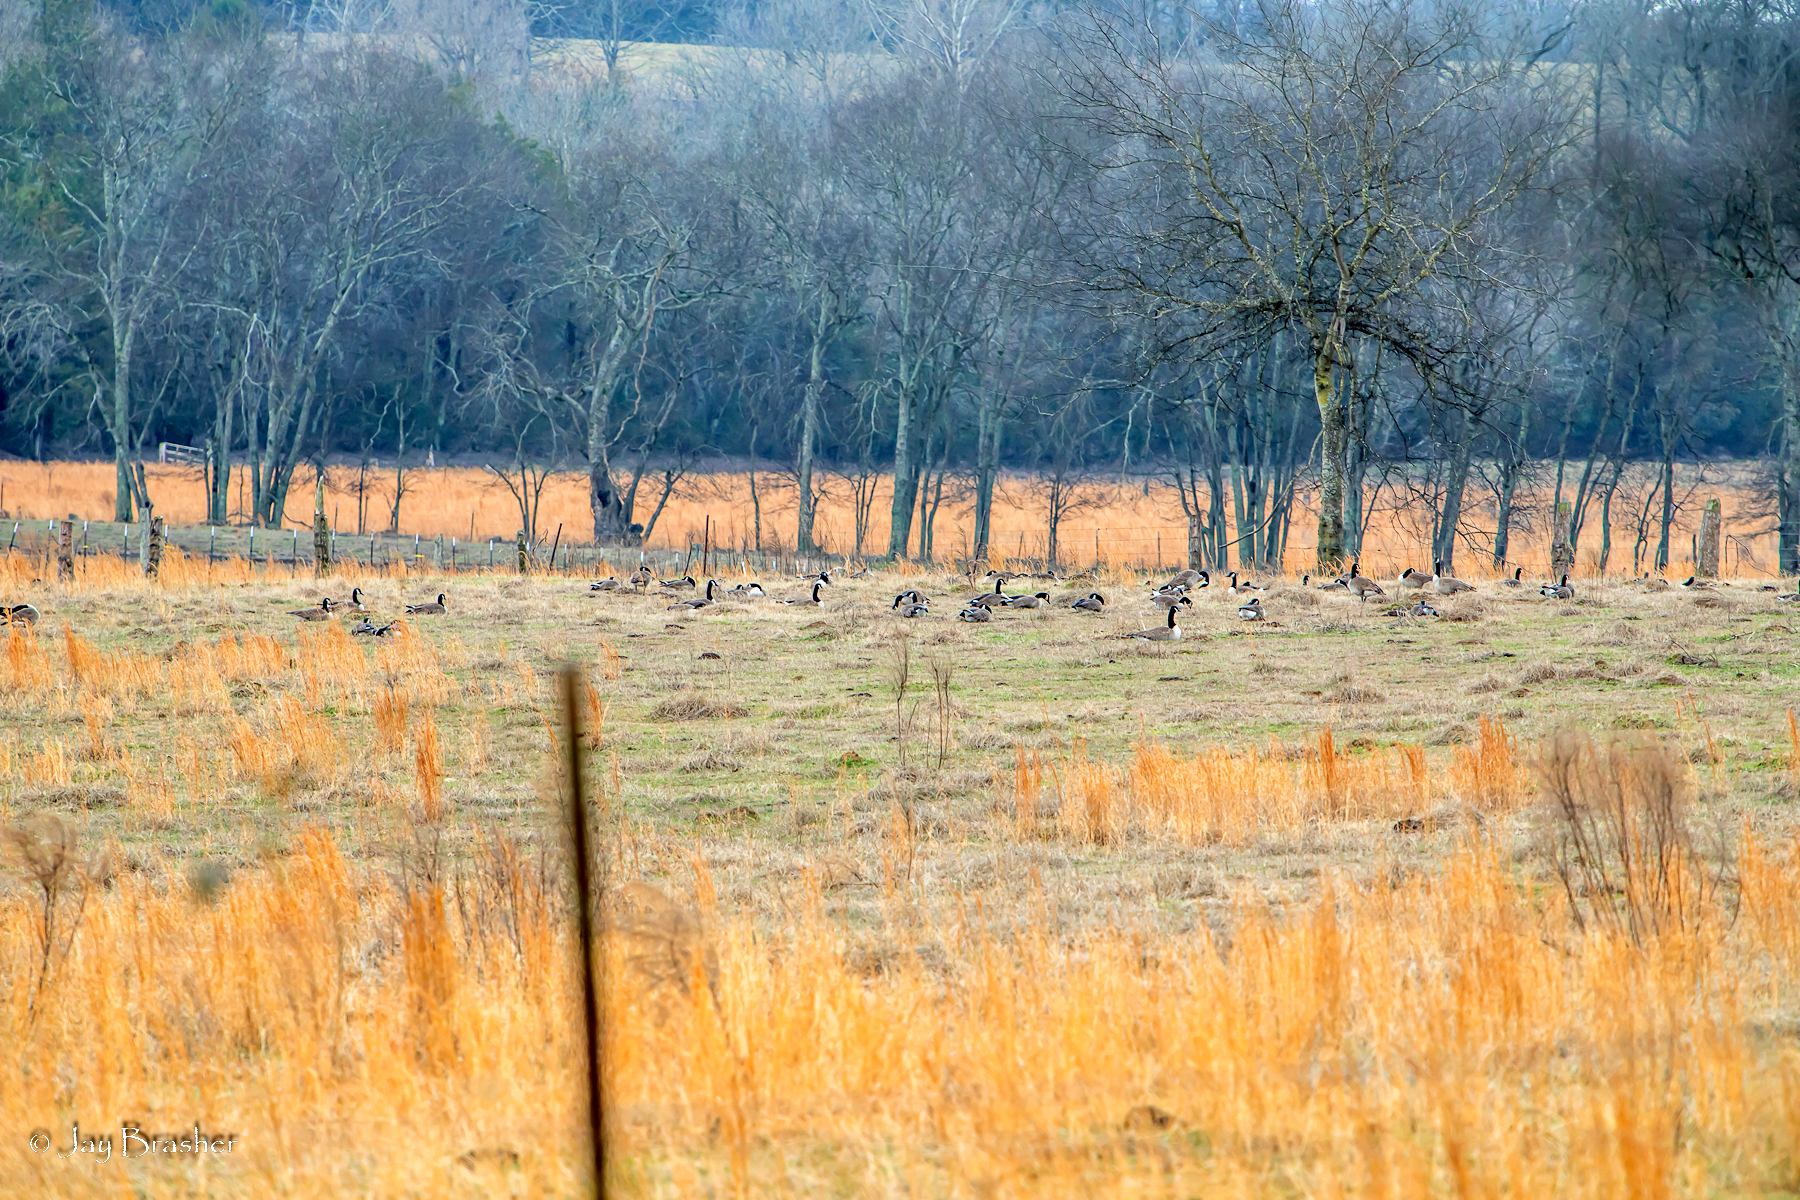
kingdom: Animalia
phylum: Chordata
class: Aves
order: Anseriformes
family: Anatidae
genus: Branta
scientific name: Branta canadensis
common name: Canada goose
